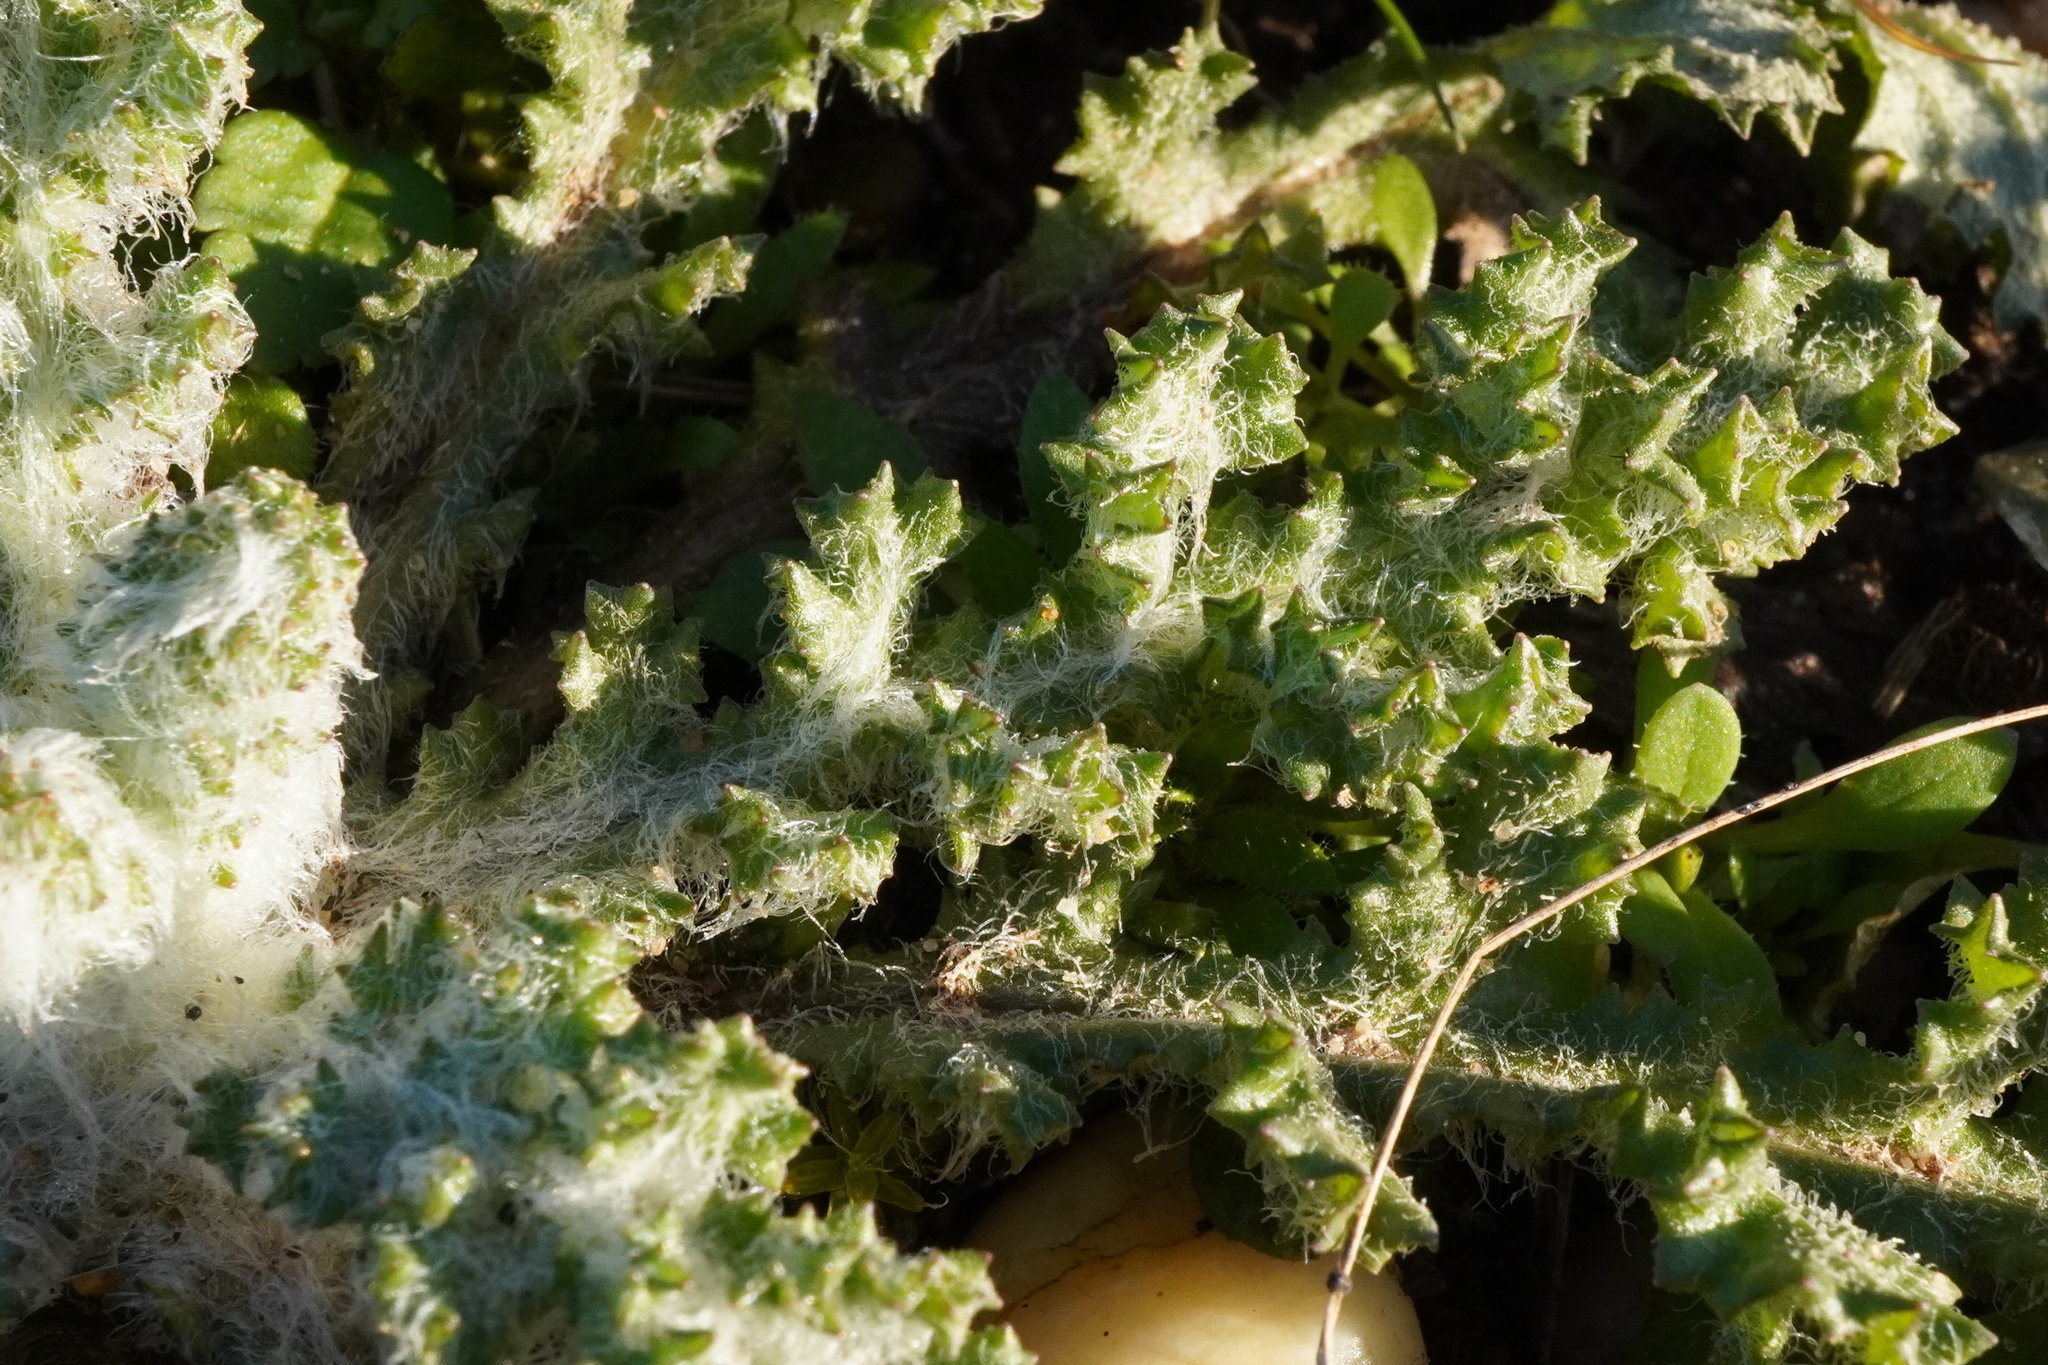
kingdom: Plantae
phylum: Tracheophyta
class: Magnoliopsida
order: Asterales
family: Asteraceae
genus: Senecio
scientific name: Senecio vernalis
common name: Eastern groundsel
